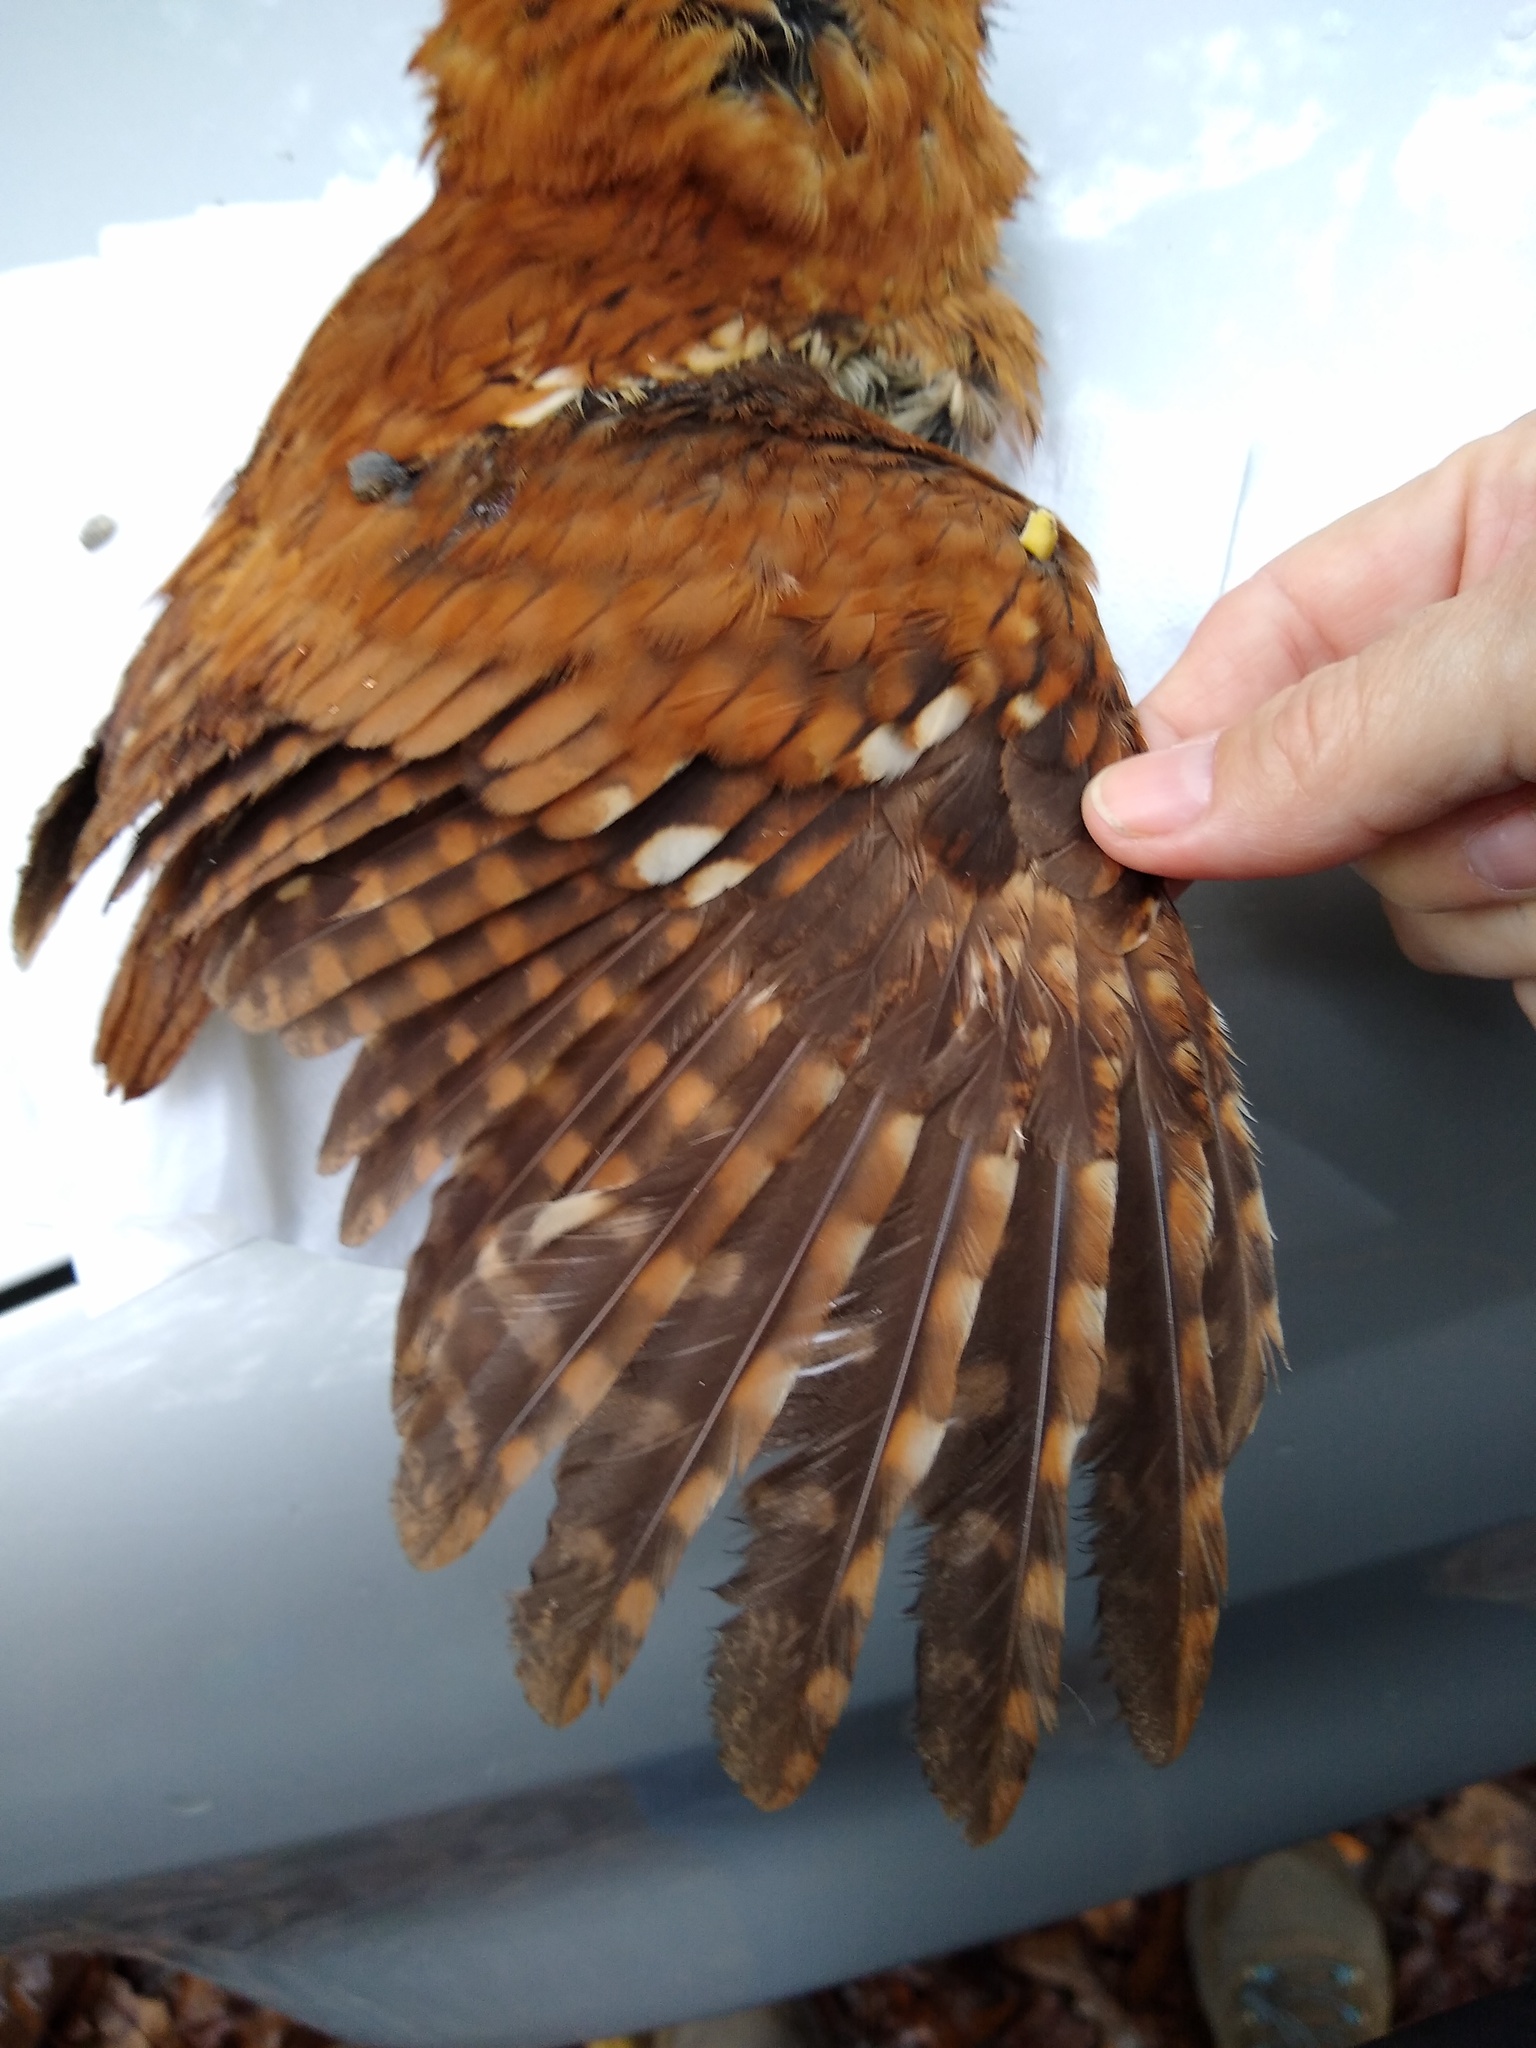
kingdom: Animalia
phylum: Chordata
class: Aves
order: Strigiformes
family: Strigidae
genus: Megascops
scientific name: Megascops asio
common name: Eastern screech-owl
